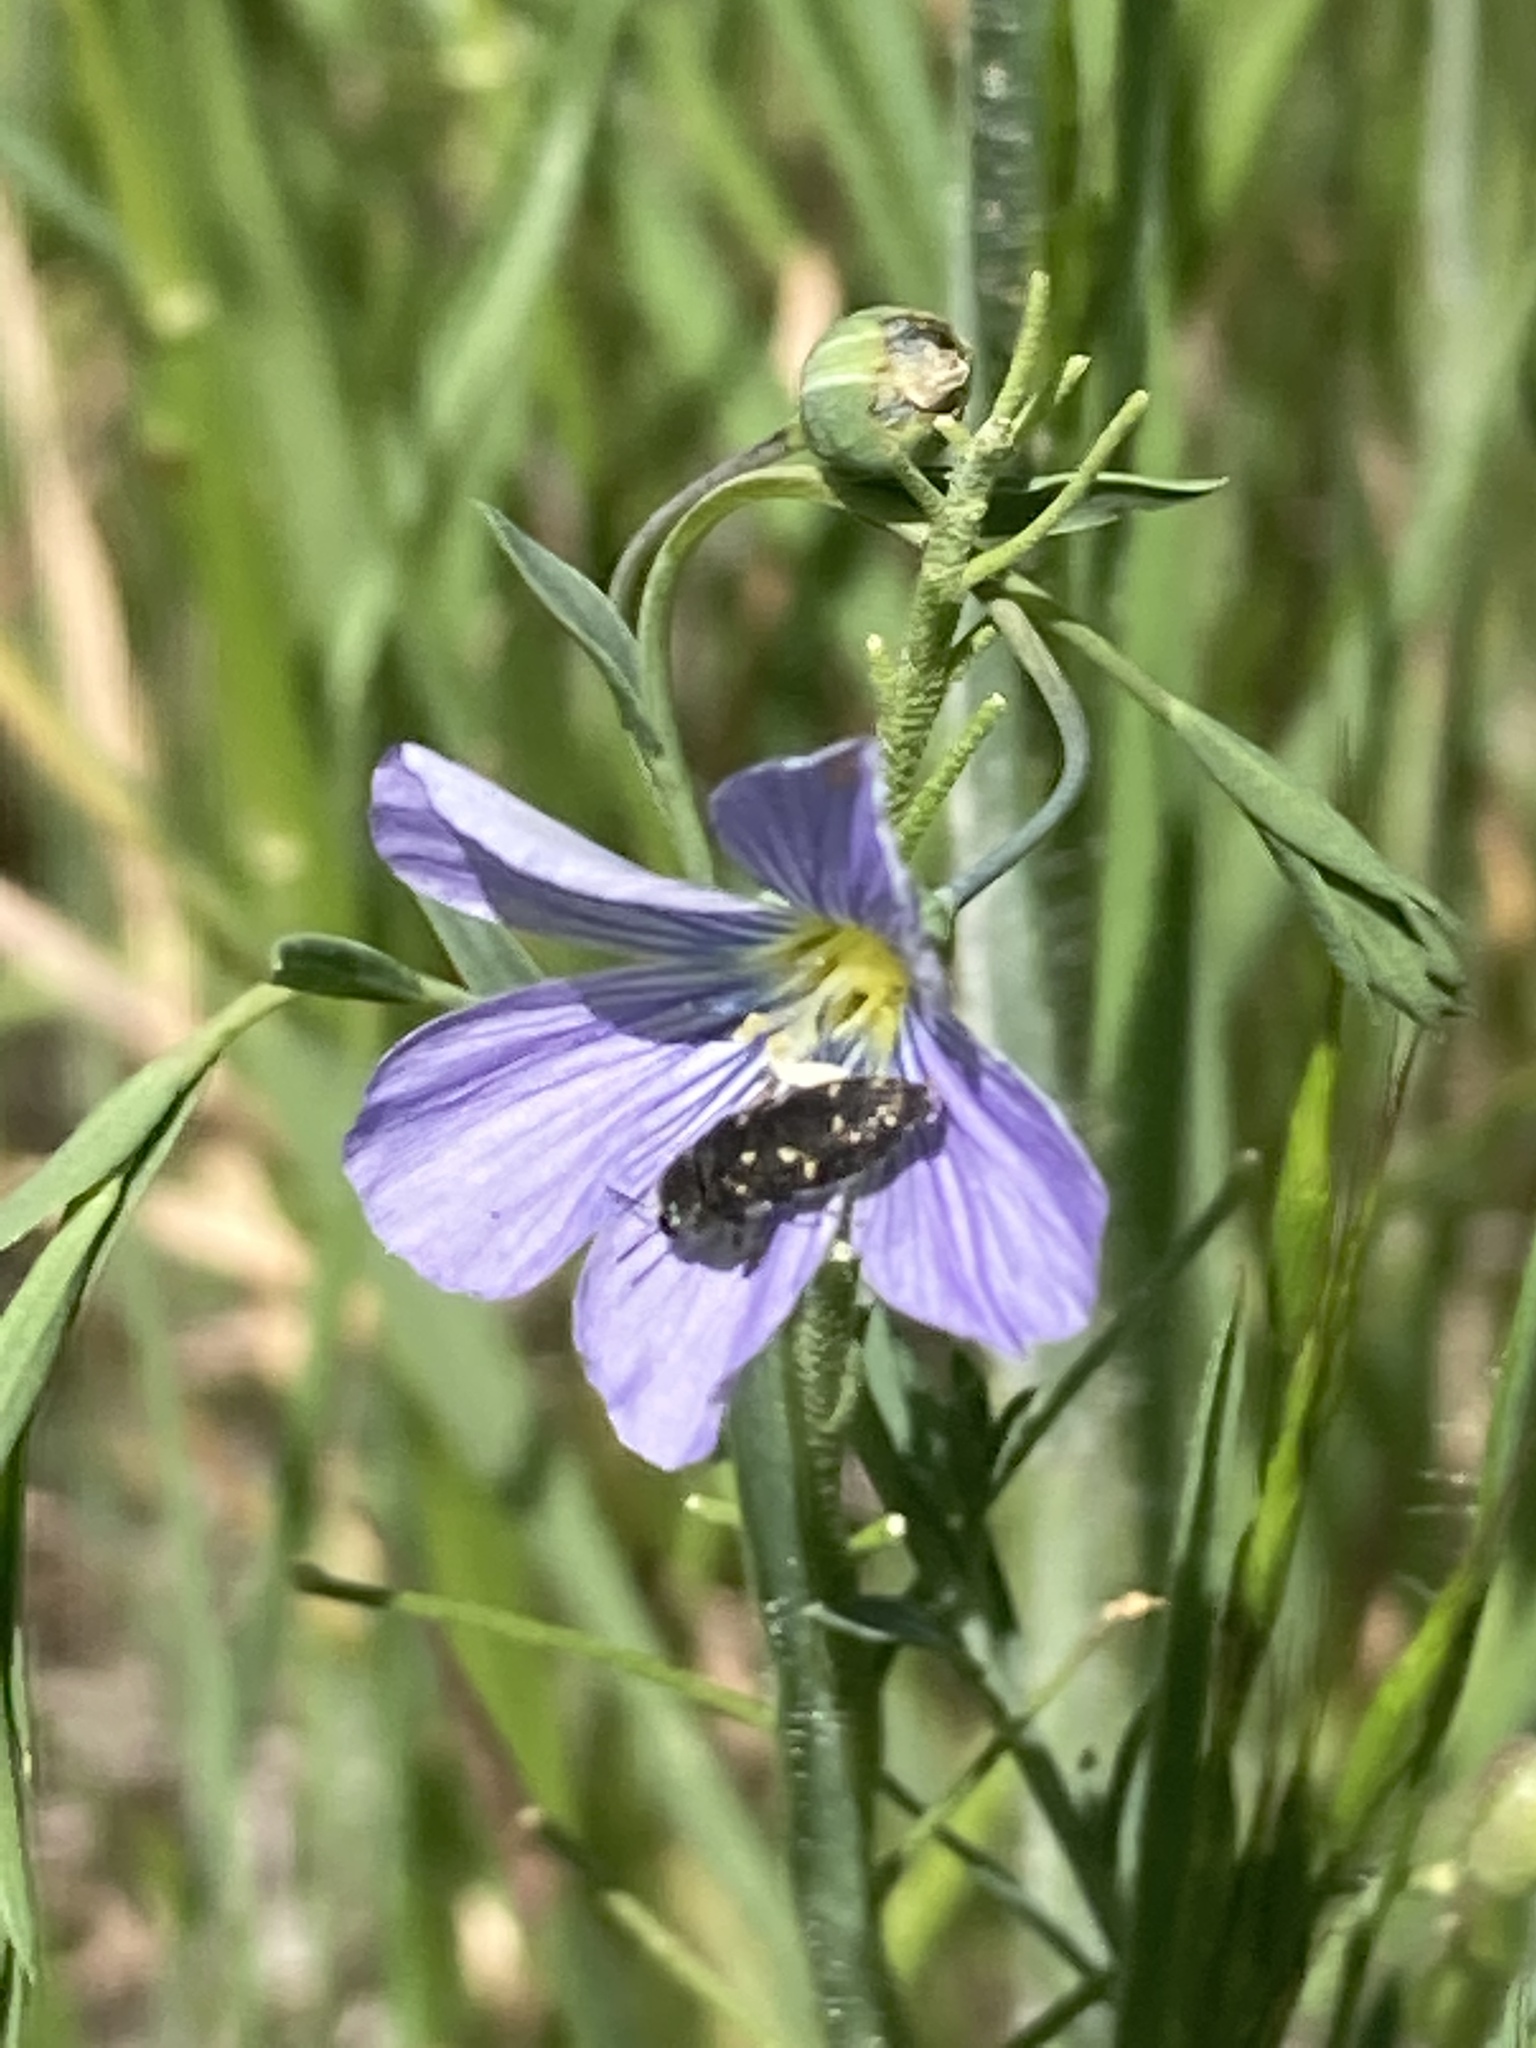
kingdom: Animalia
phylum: Arthropoda
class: Insecta
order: Coleoptera
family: Buprestidae
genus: Acmaeodera
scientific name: Acmaeodera tubulus
